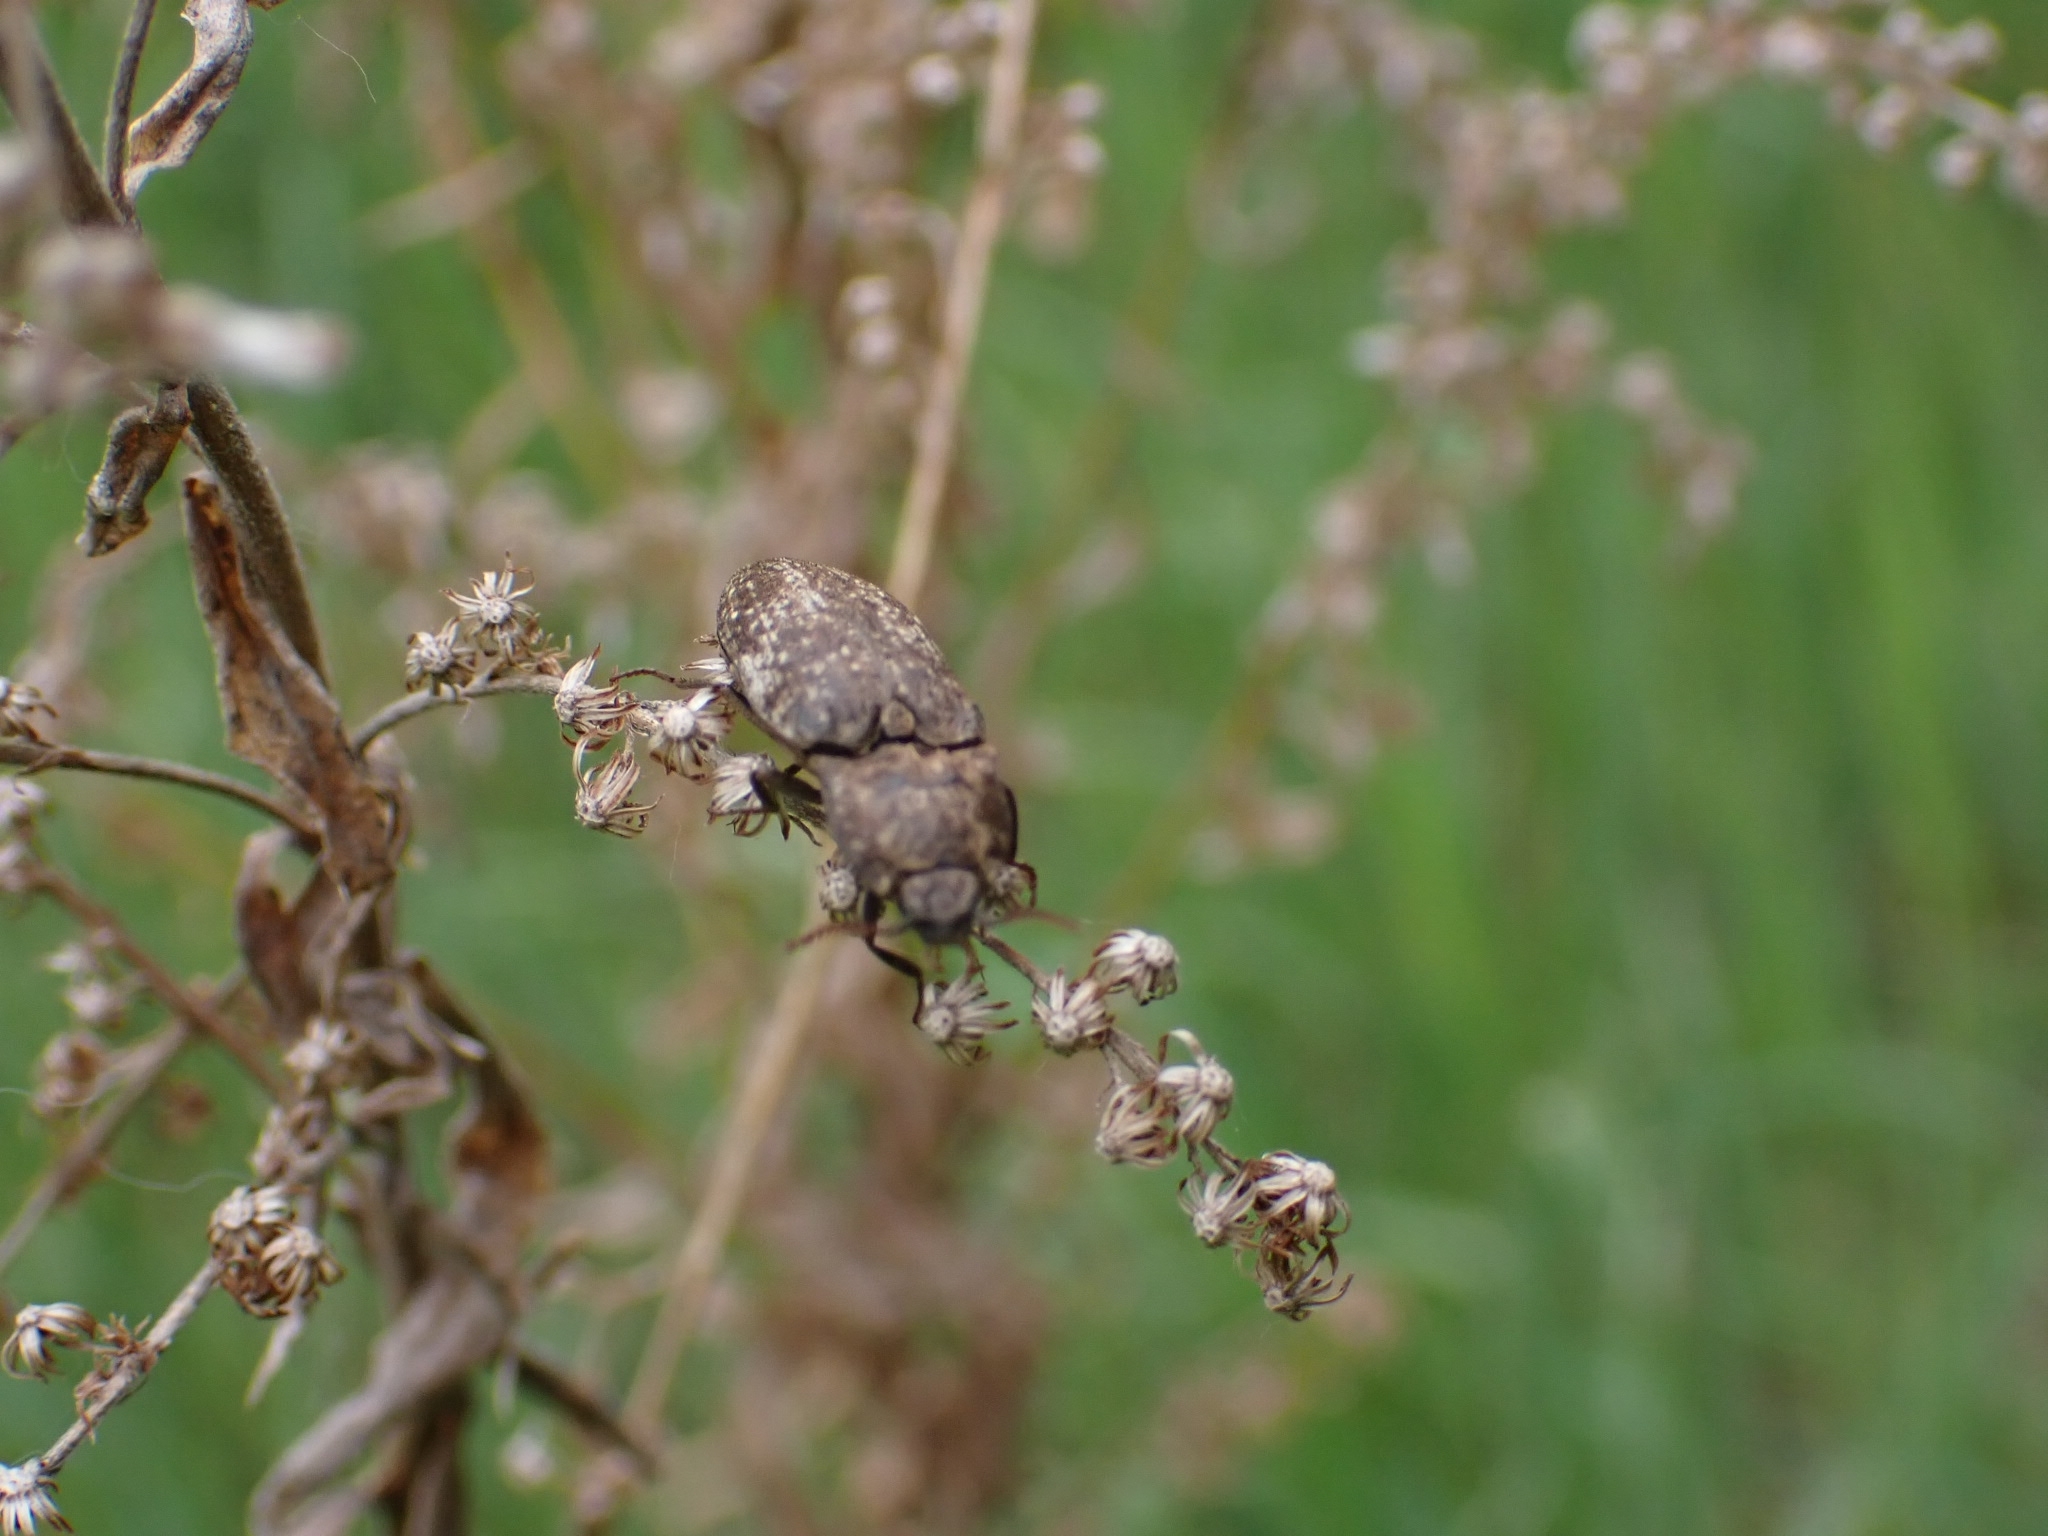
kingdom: Animalia
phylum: Arthropoda
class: Insecta
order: Coleoptera
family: Elateridae
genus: Agrypnus
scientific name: Agrypnus murinus
